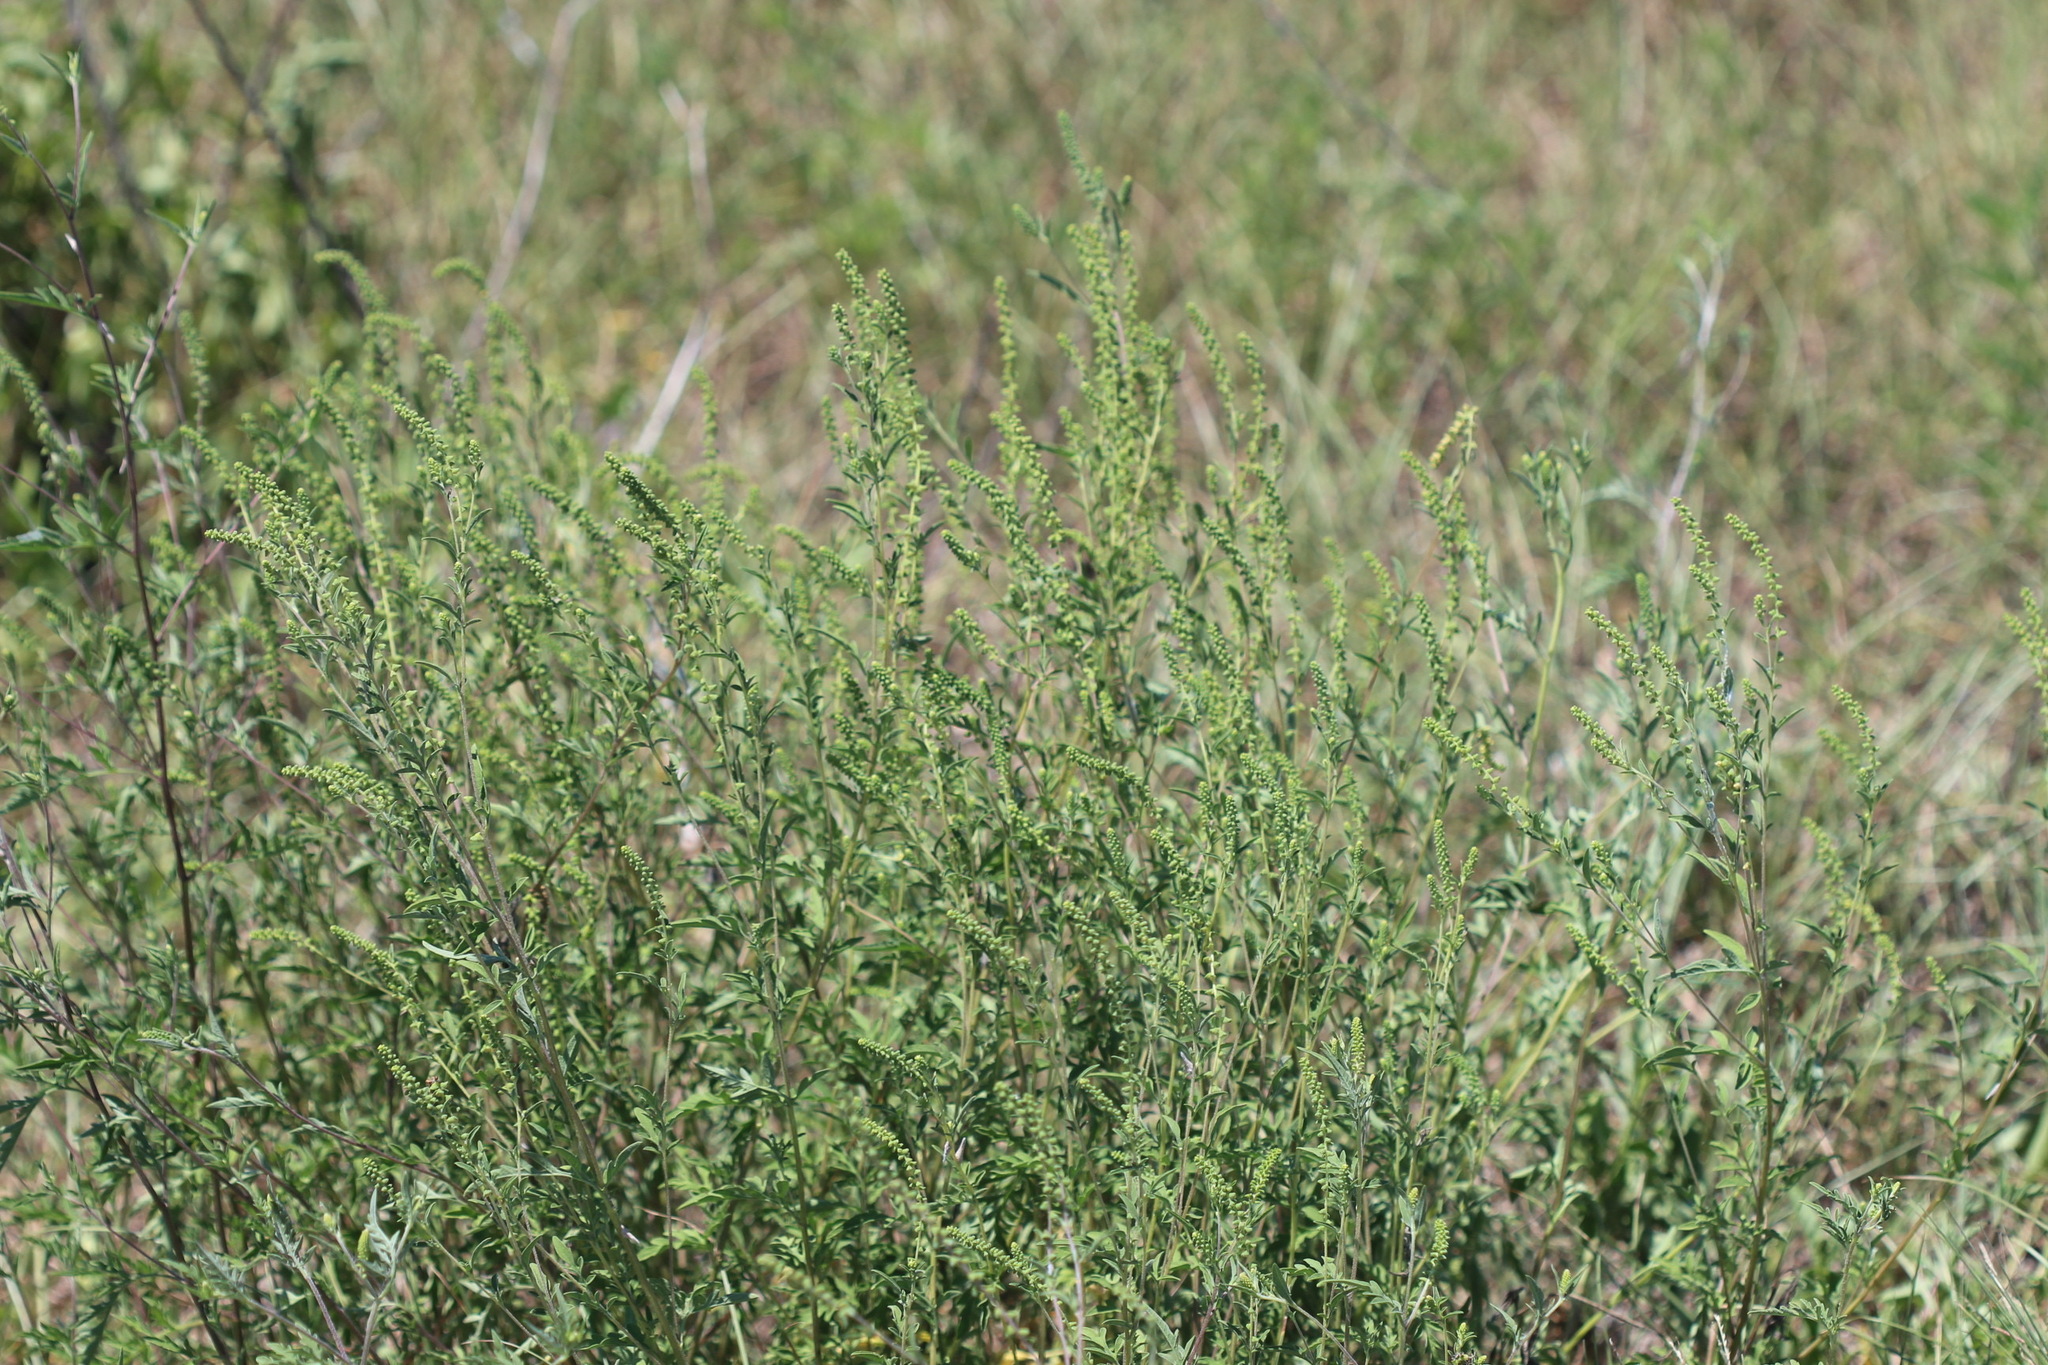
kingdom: Plantae
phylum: Tracheophyta
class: Magnoliopsida
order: Asterales
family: Asteraceae
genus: Ambrosia
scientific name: Ambrosia artemisiifolia
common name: Annual ragweed
